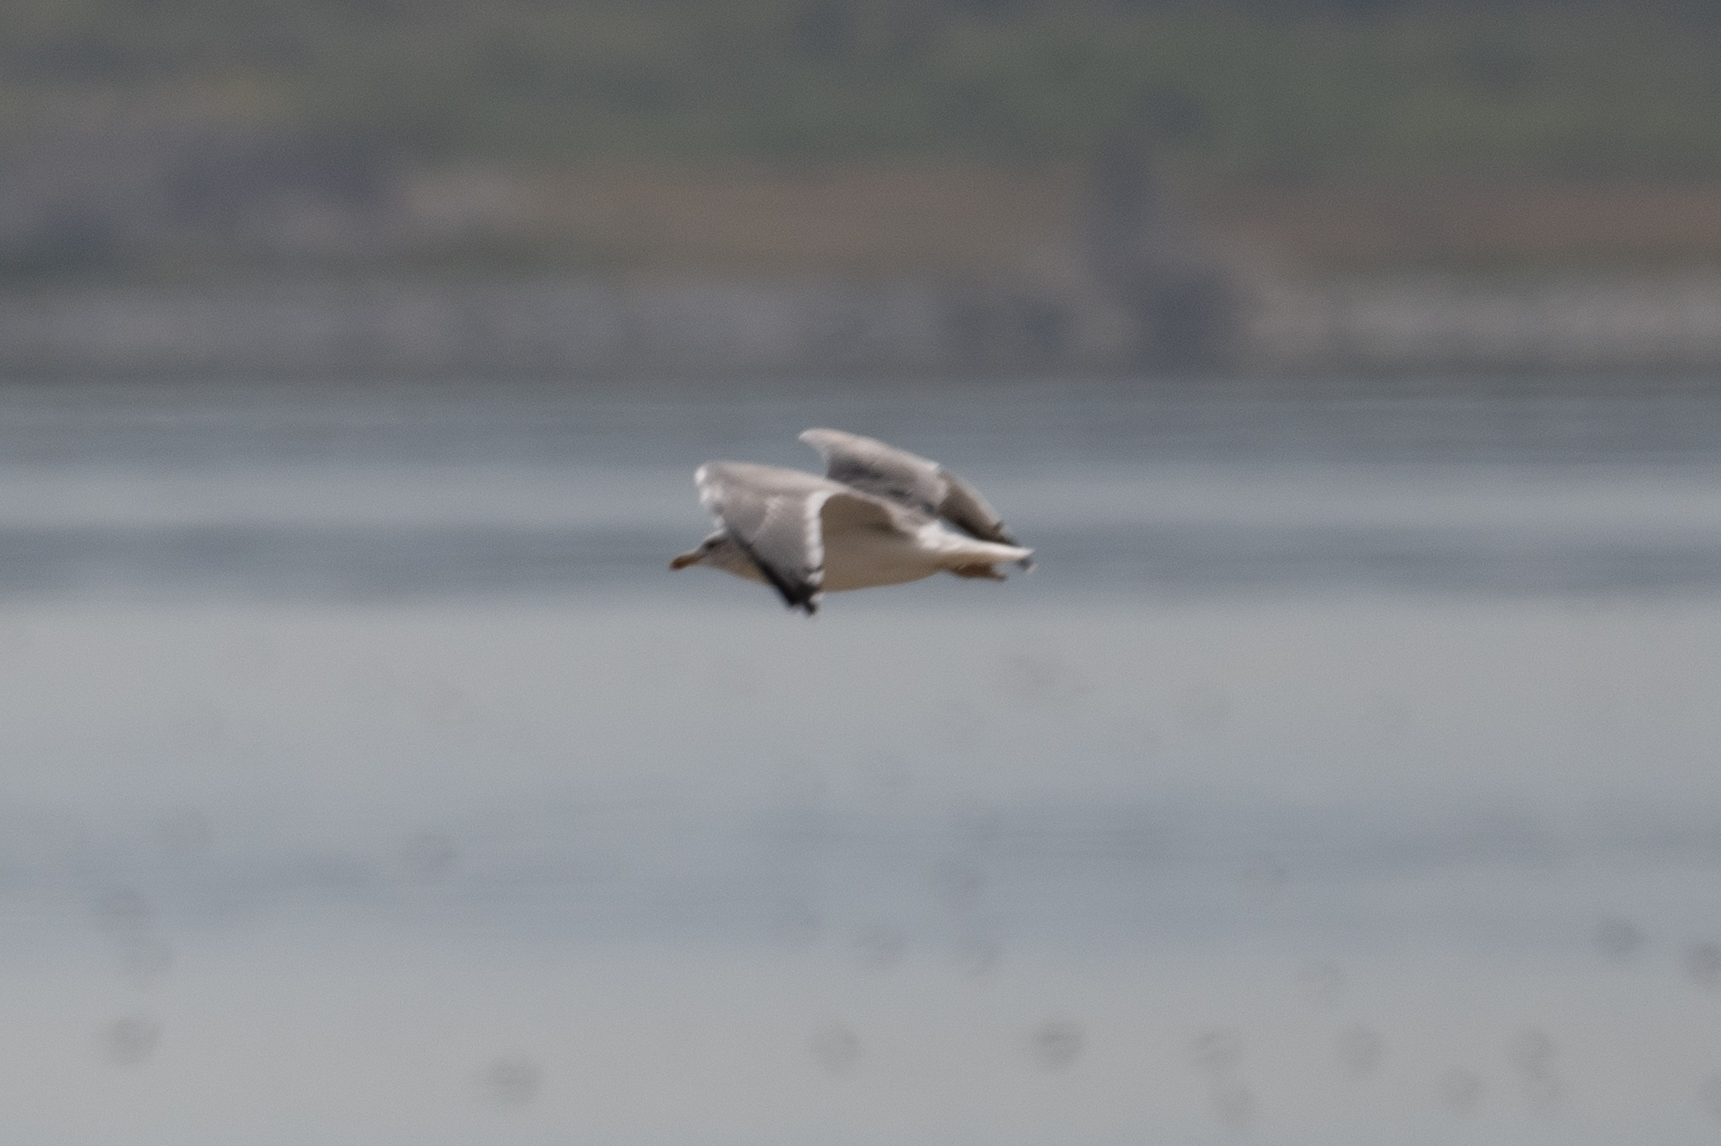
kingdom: Animalia
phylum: Chordata
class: Aves
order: Charadriiformes
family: Laridae
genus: Larus
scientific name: Larus californicus
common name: California gull
